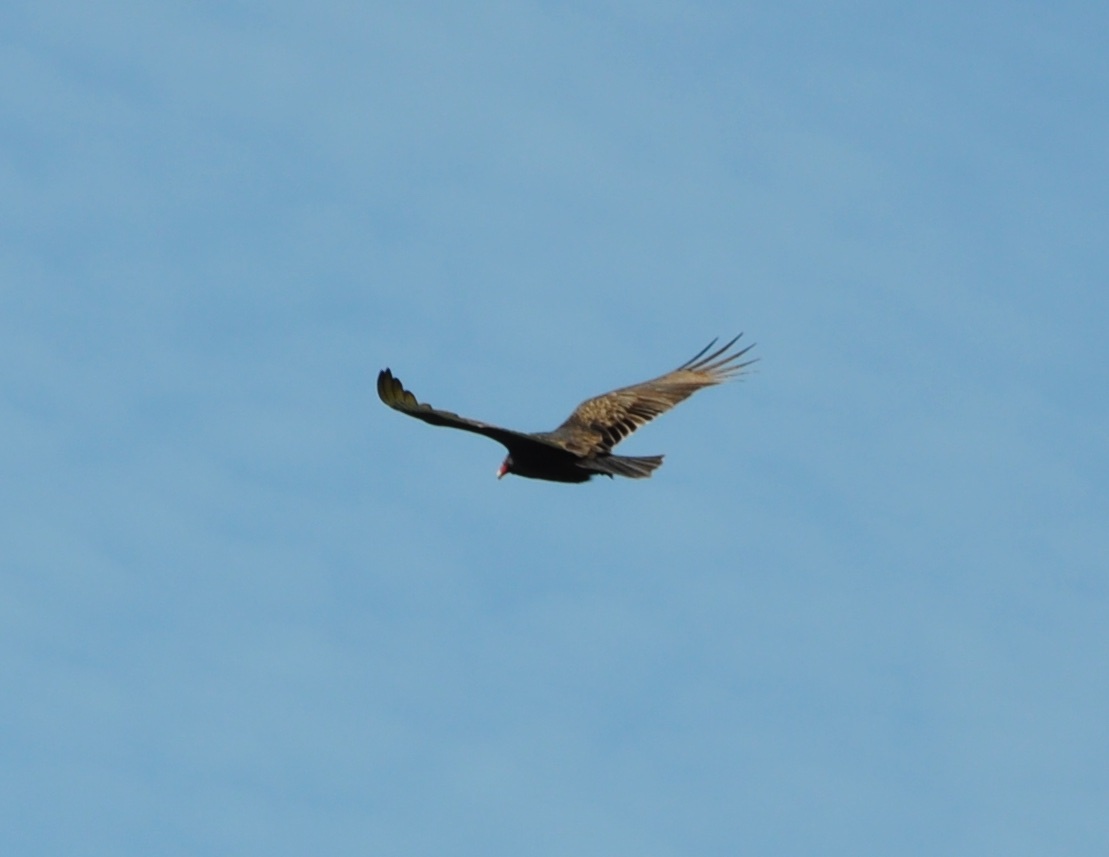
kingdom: Animalia
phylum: Chordata
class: Aves
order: Accipitriformes
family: Cathartidae
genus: Cathartes
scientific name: Cathartes aura
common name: Turkey vulture
